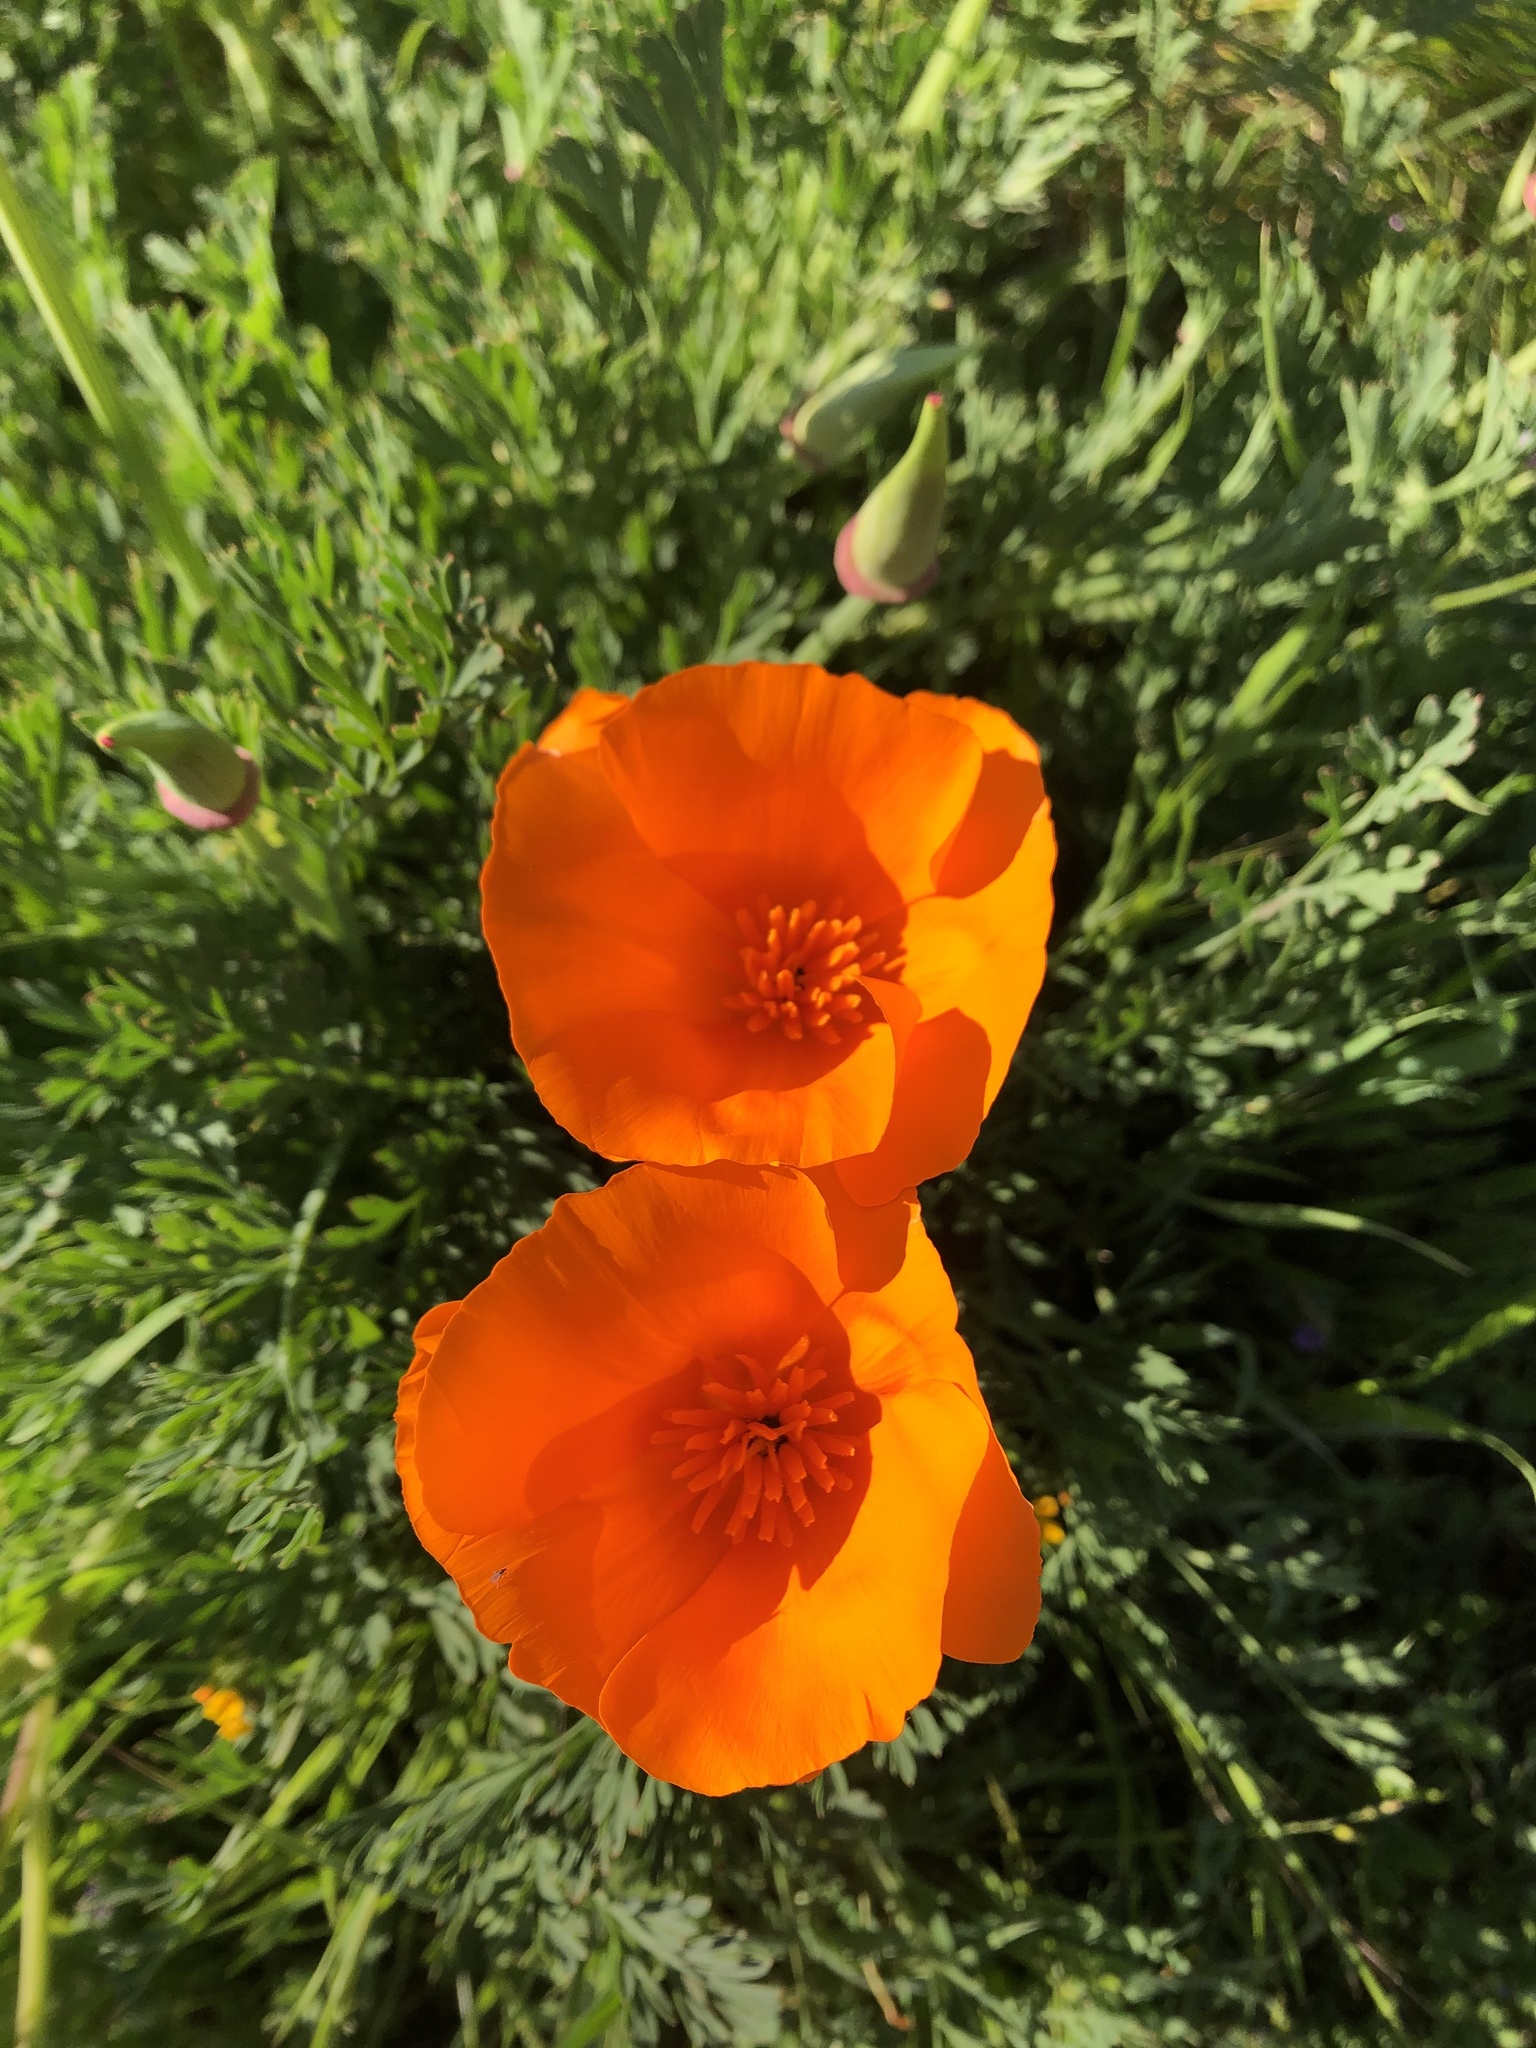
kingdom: Plantae
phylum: Tracheophyta
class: Magnoliopsida
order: Ranunculales
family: Papaveraceae
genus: Eschscholzia
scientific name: Eschscholzia californica
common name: California poppy
